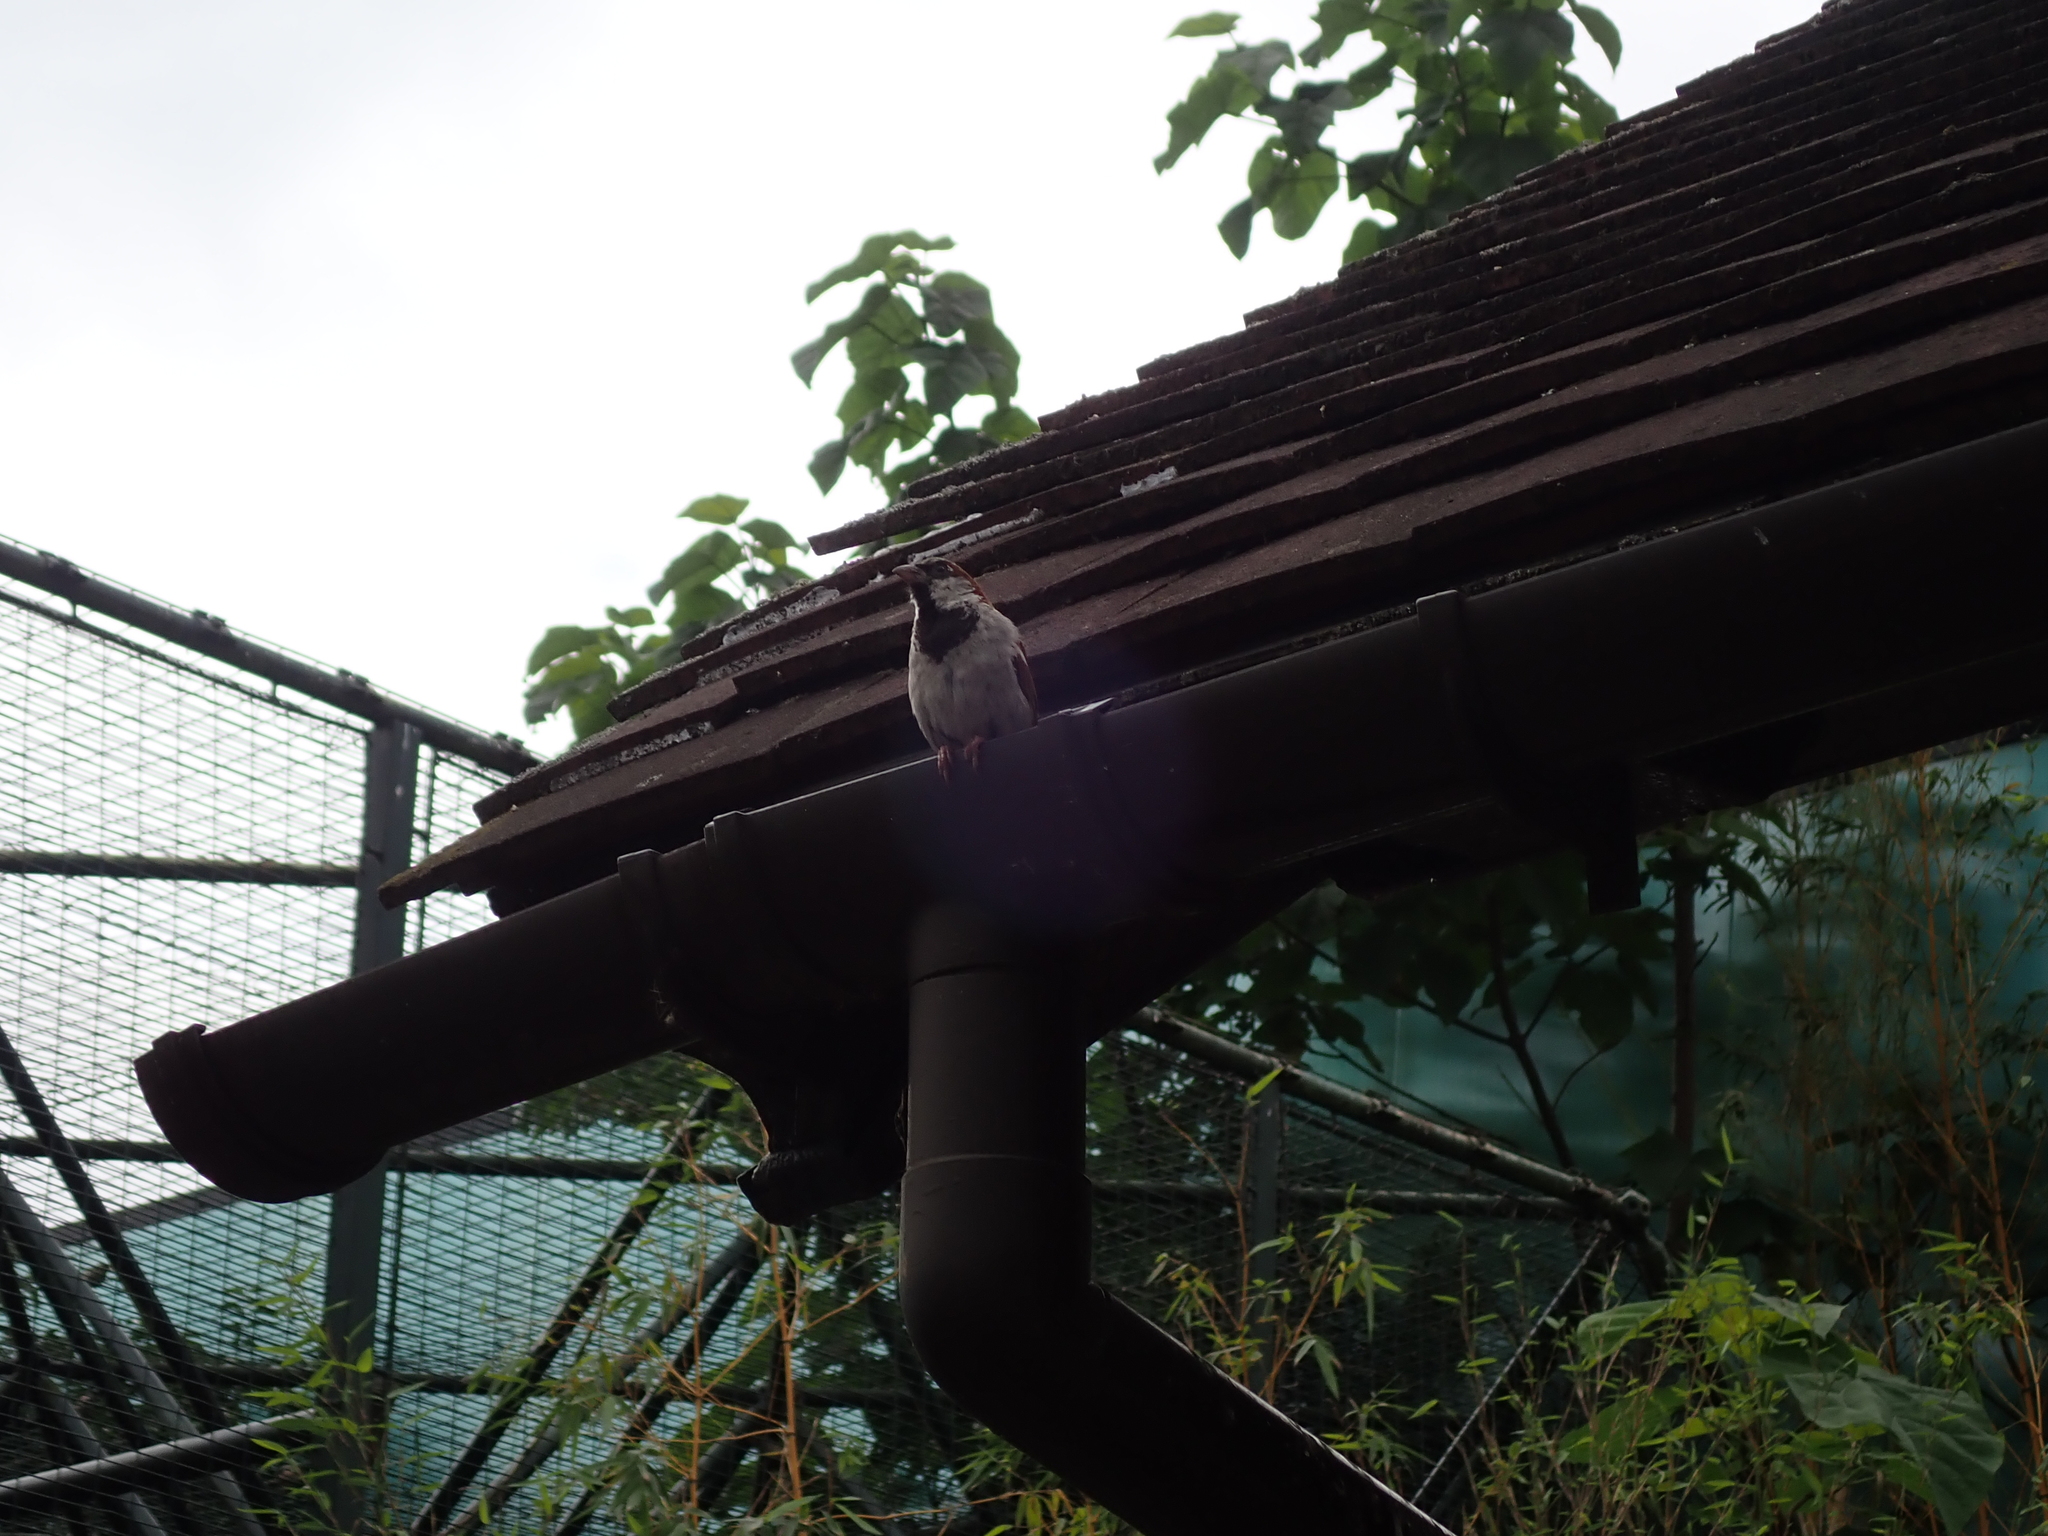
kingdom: Animalia
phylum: Chordata
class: Aves
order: Passeriformes
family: Passeridae
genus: Passer
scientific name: Passer domesticus
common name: House sparrow
